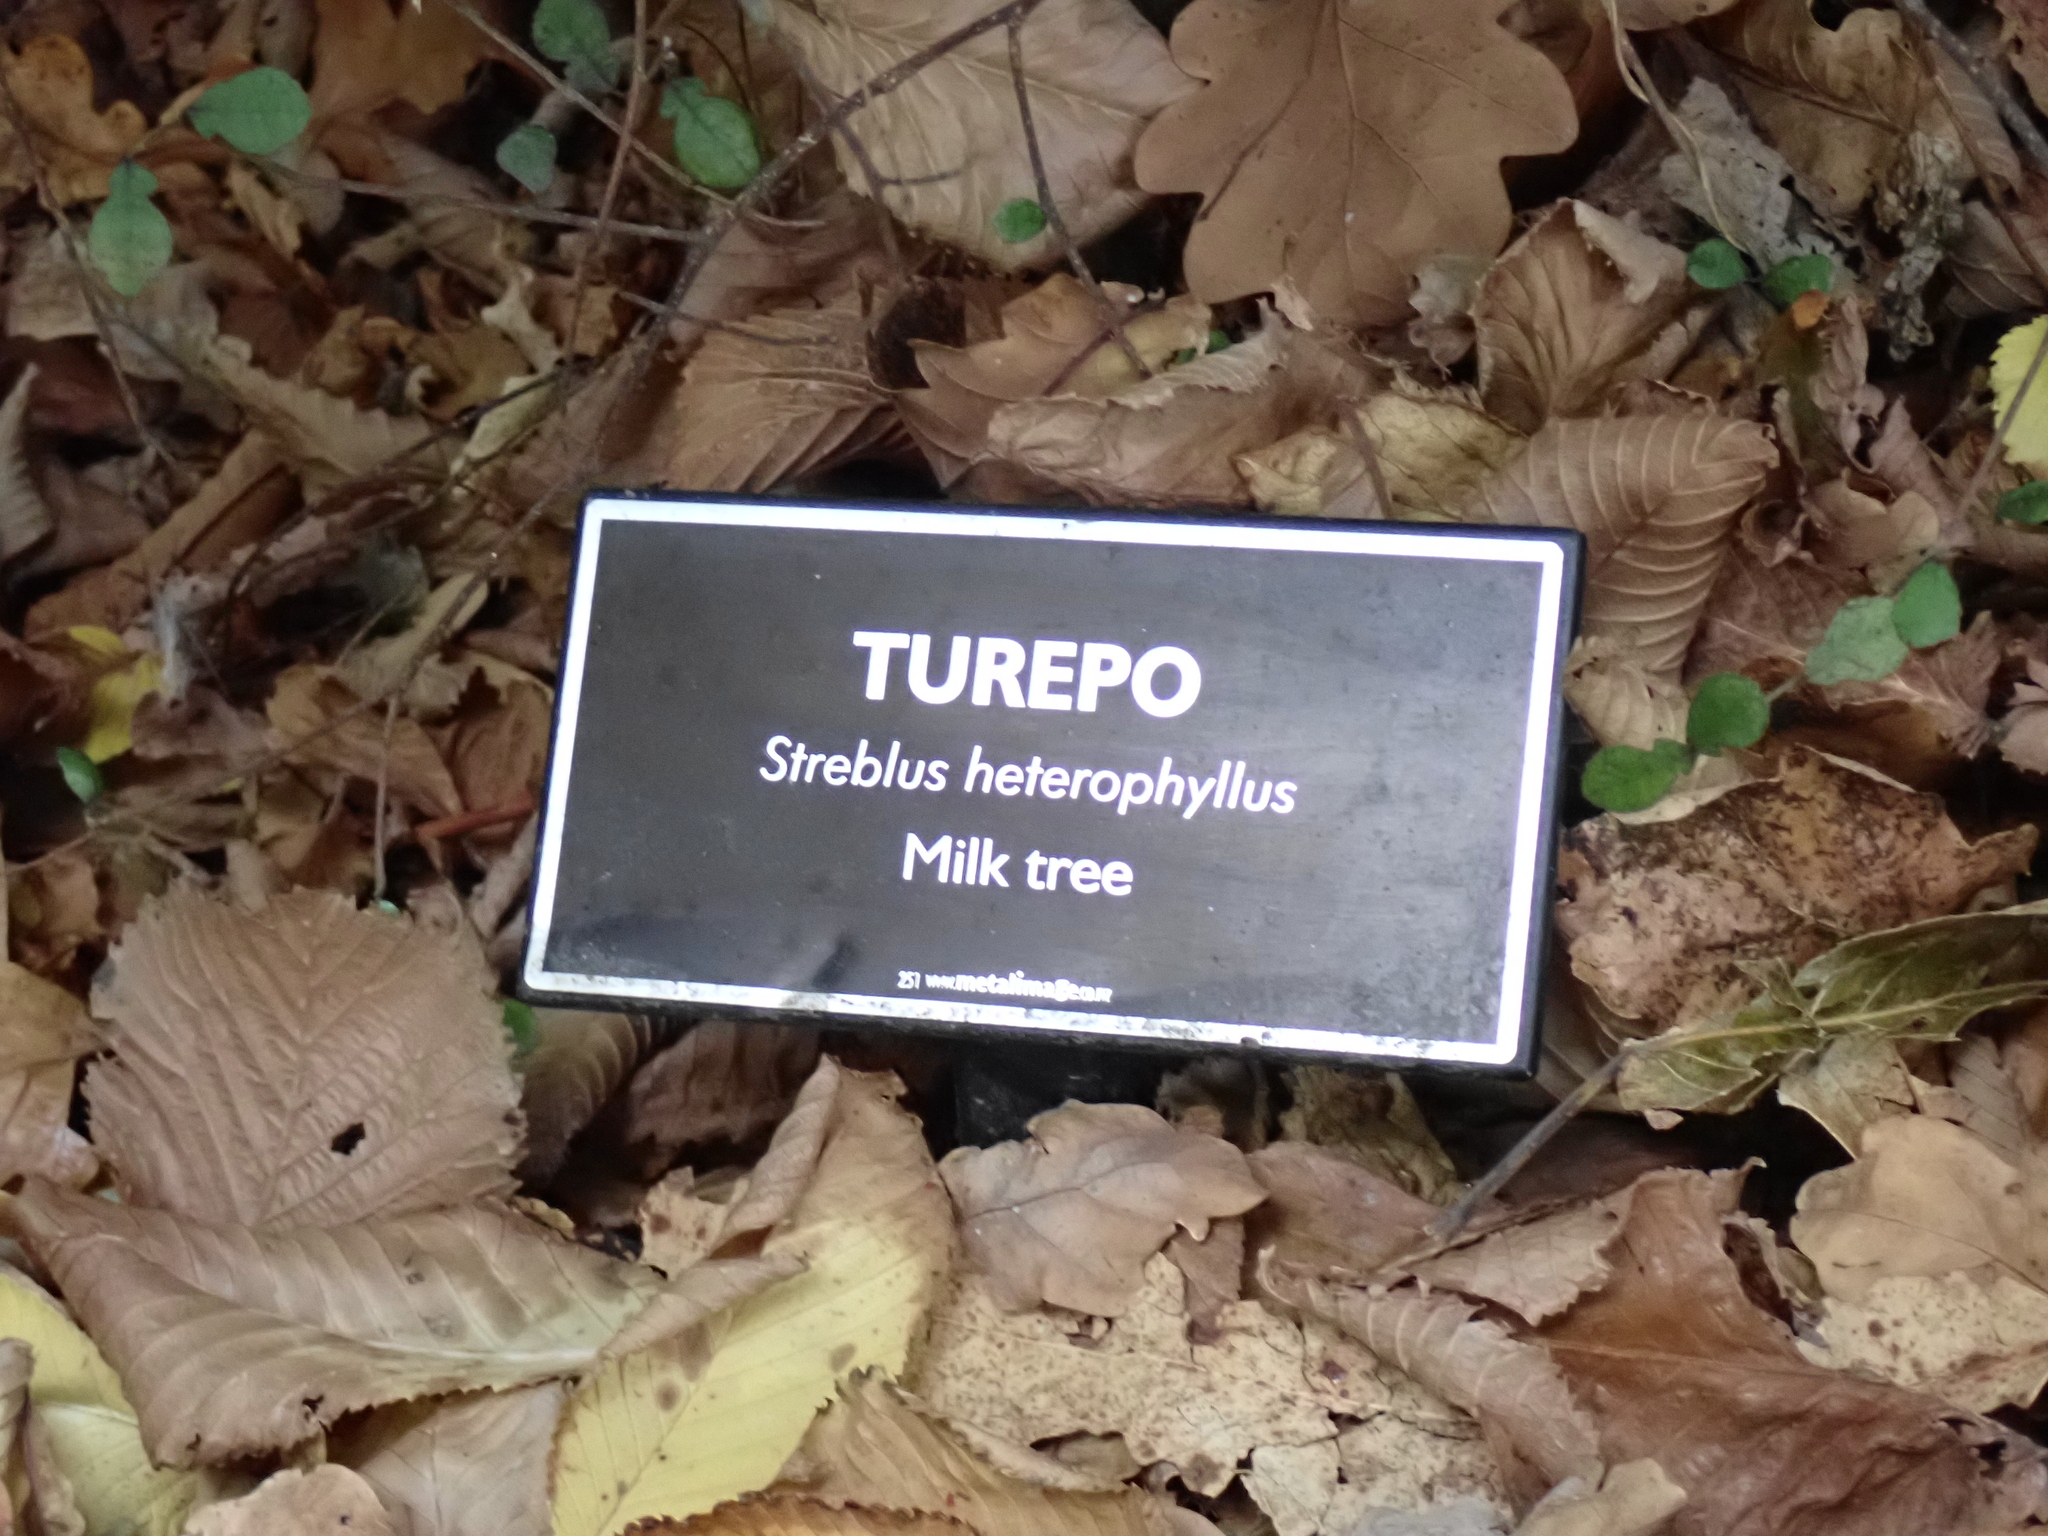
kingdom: Plantae
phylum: Tracheophyta
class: Magnoliopsida
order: Rosales
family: Moraceae
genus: Paratrophis
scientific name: Paratrophis microphylla
